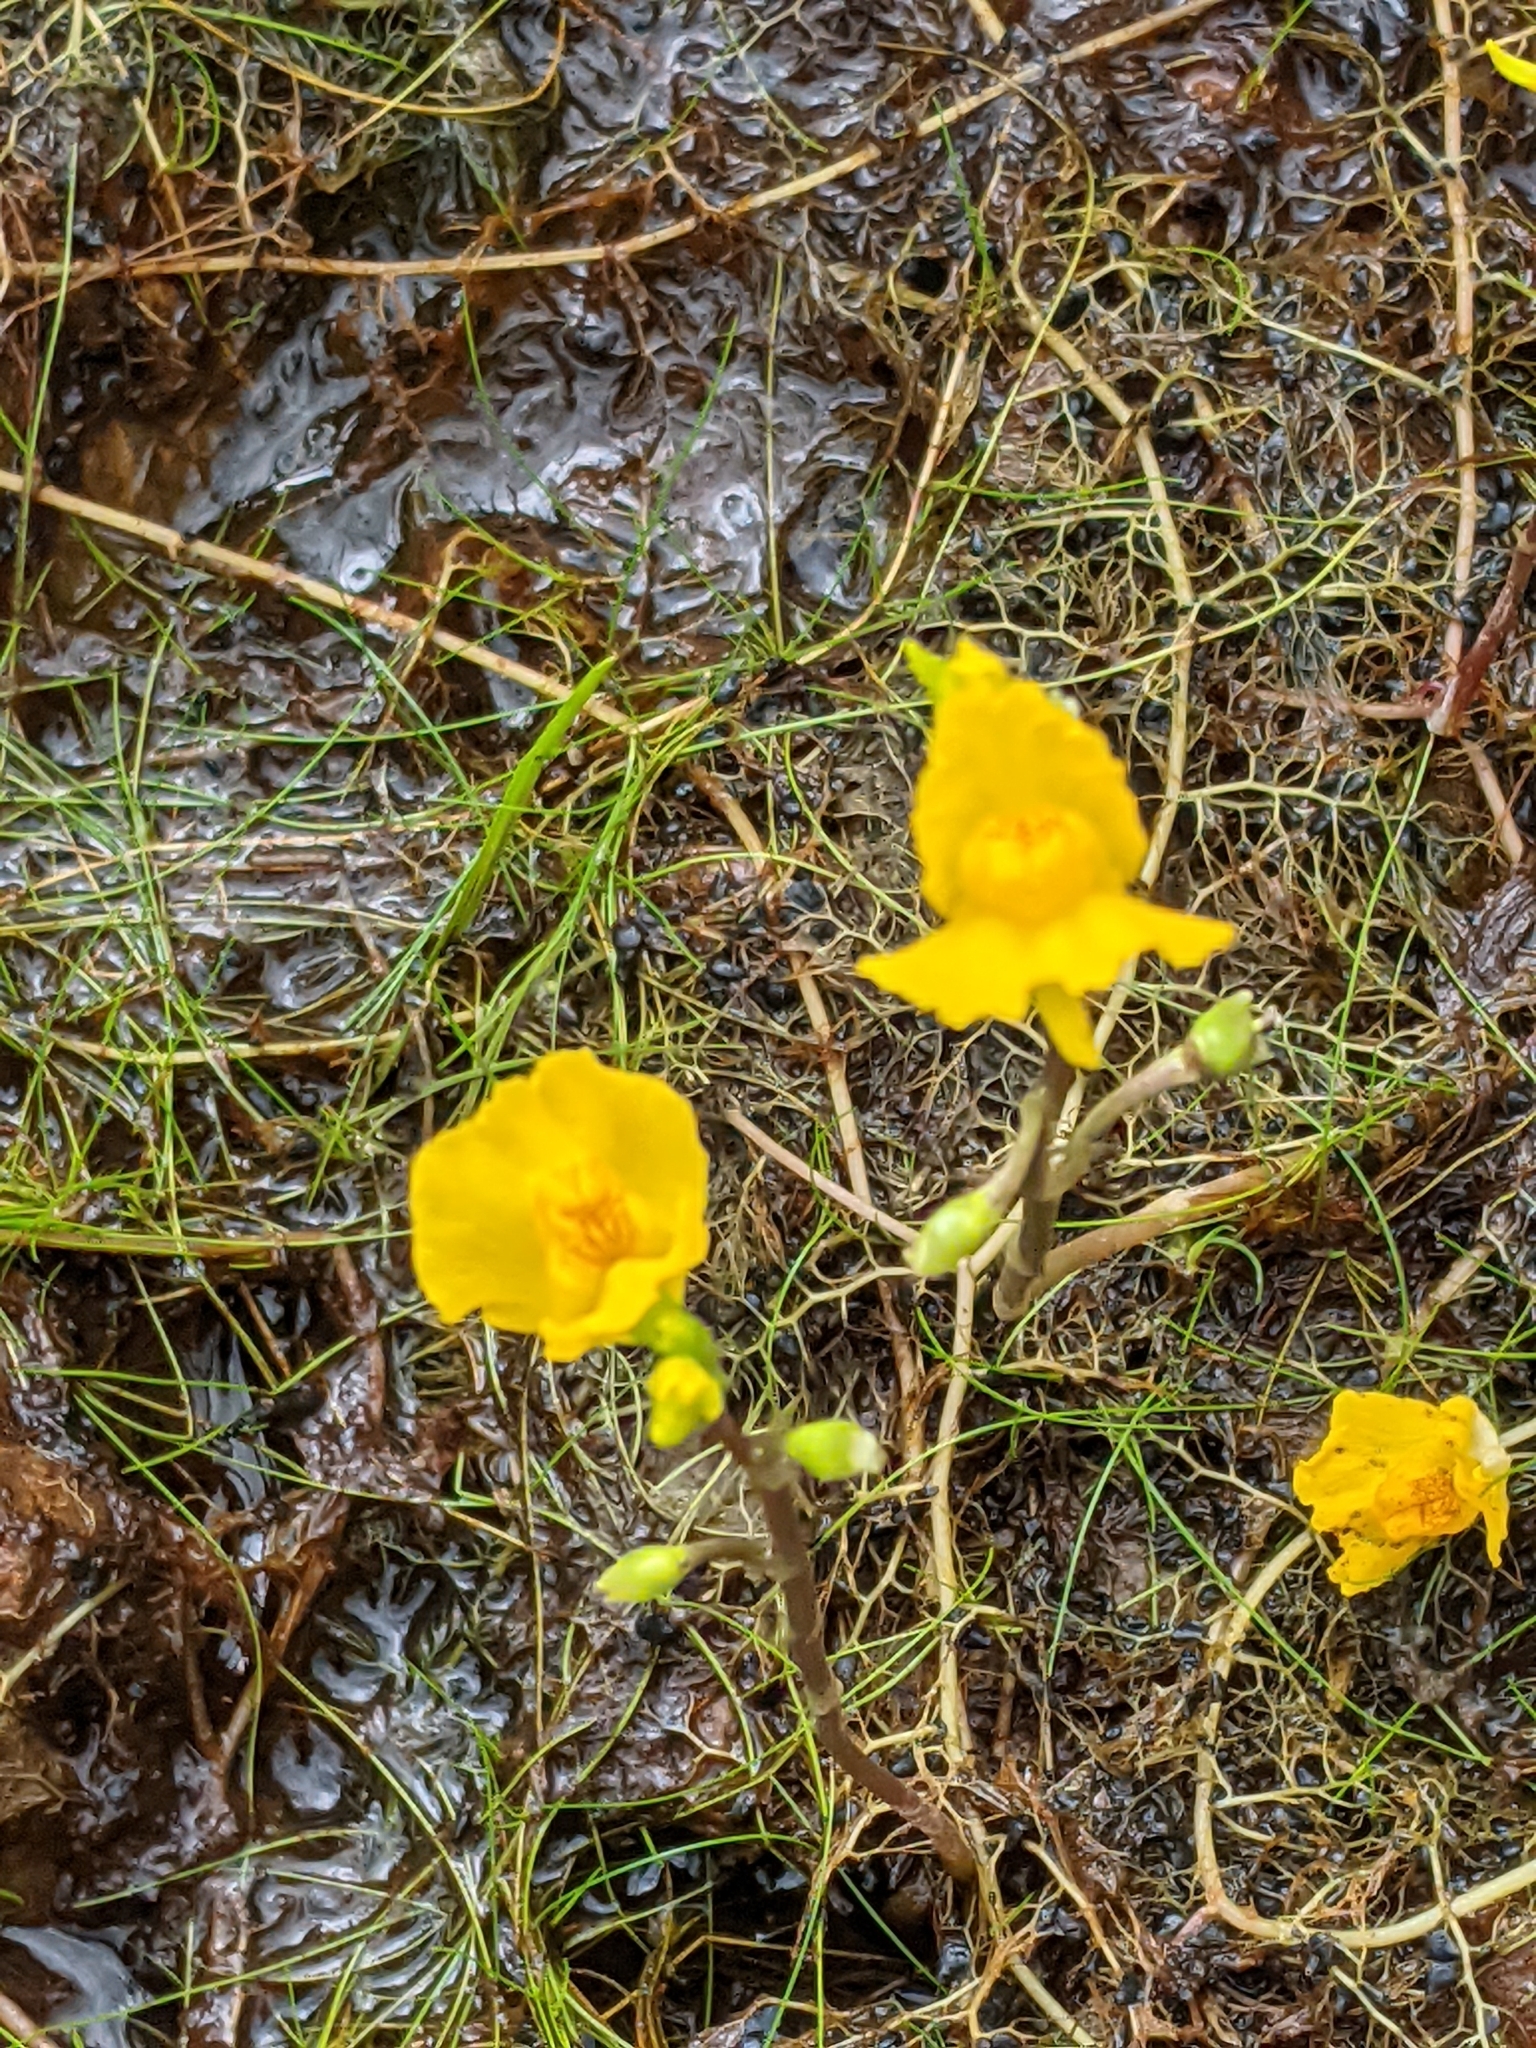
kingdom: Plantae
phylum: Tracheophyta
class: Magnoliopsida
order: Lamiales
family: Lentibulariaceae
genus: Utricularia
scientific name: Utricularia macrorhiza
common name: Common bladderwort
